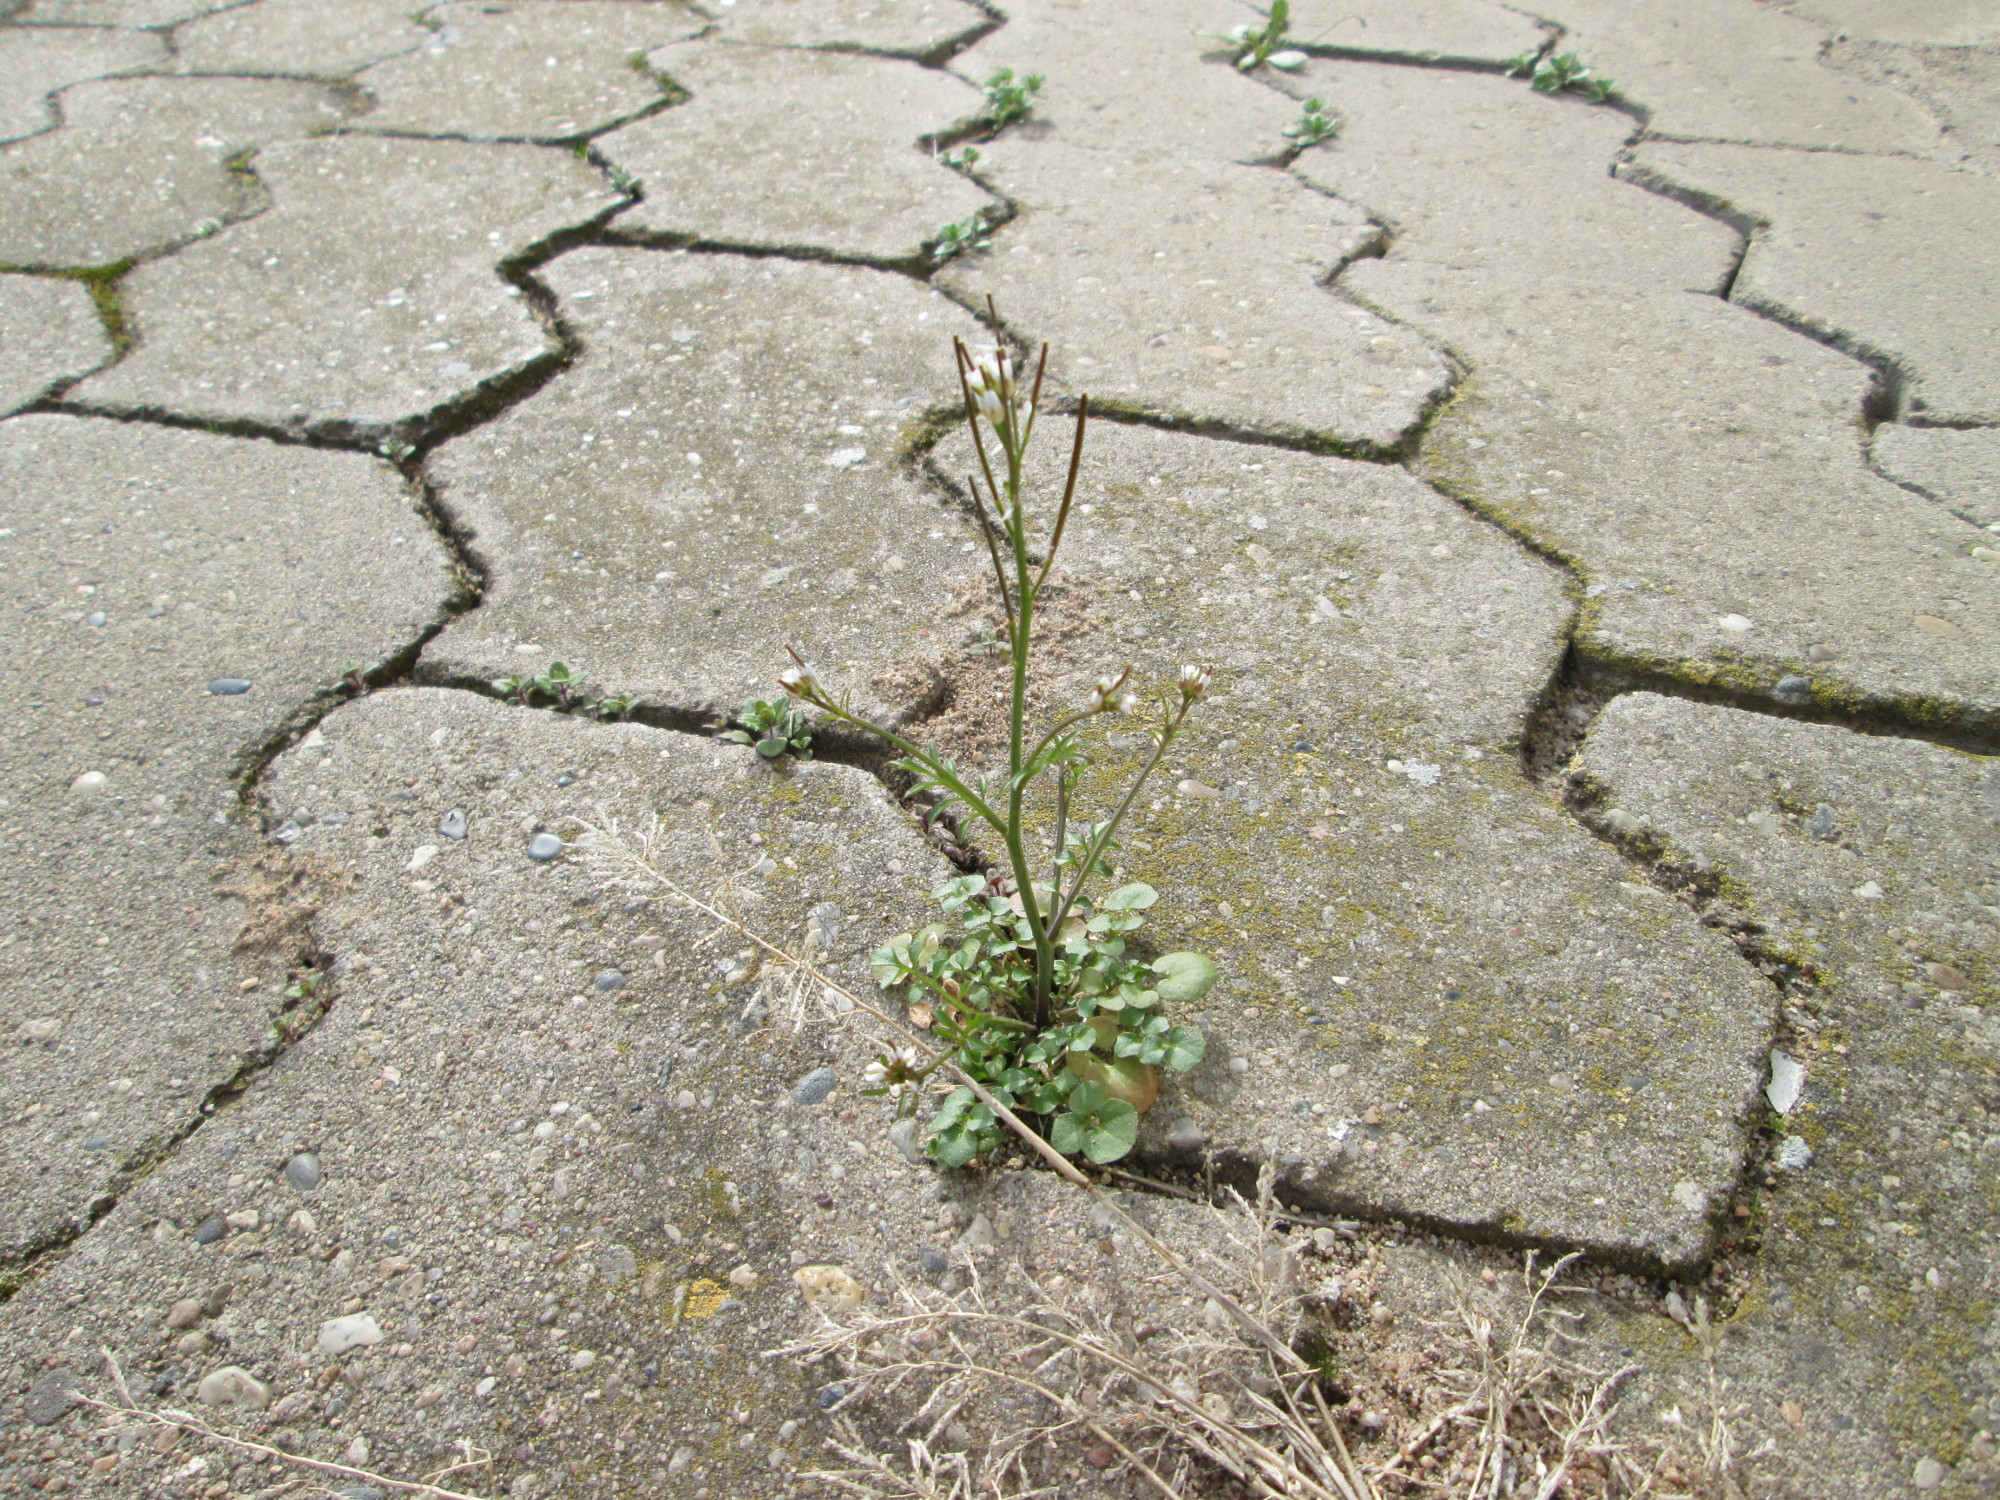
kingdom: Plantae
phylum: Tracheophyta
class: Magnoliopsida
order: Brassicales
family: Brassicaceae
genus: Cardamine
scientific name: Cardamine hirsuta
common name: Hairy bittercress
